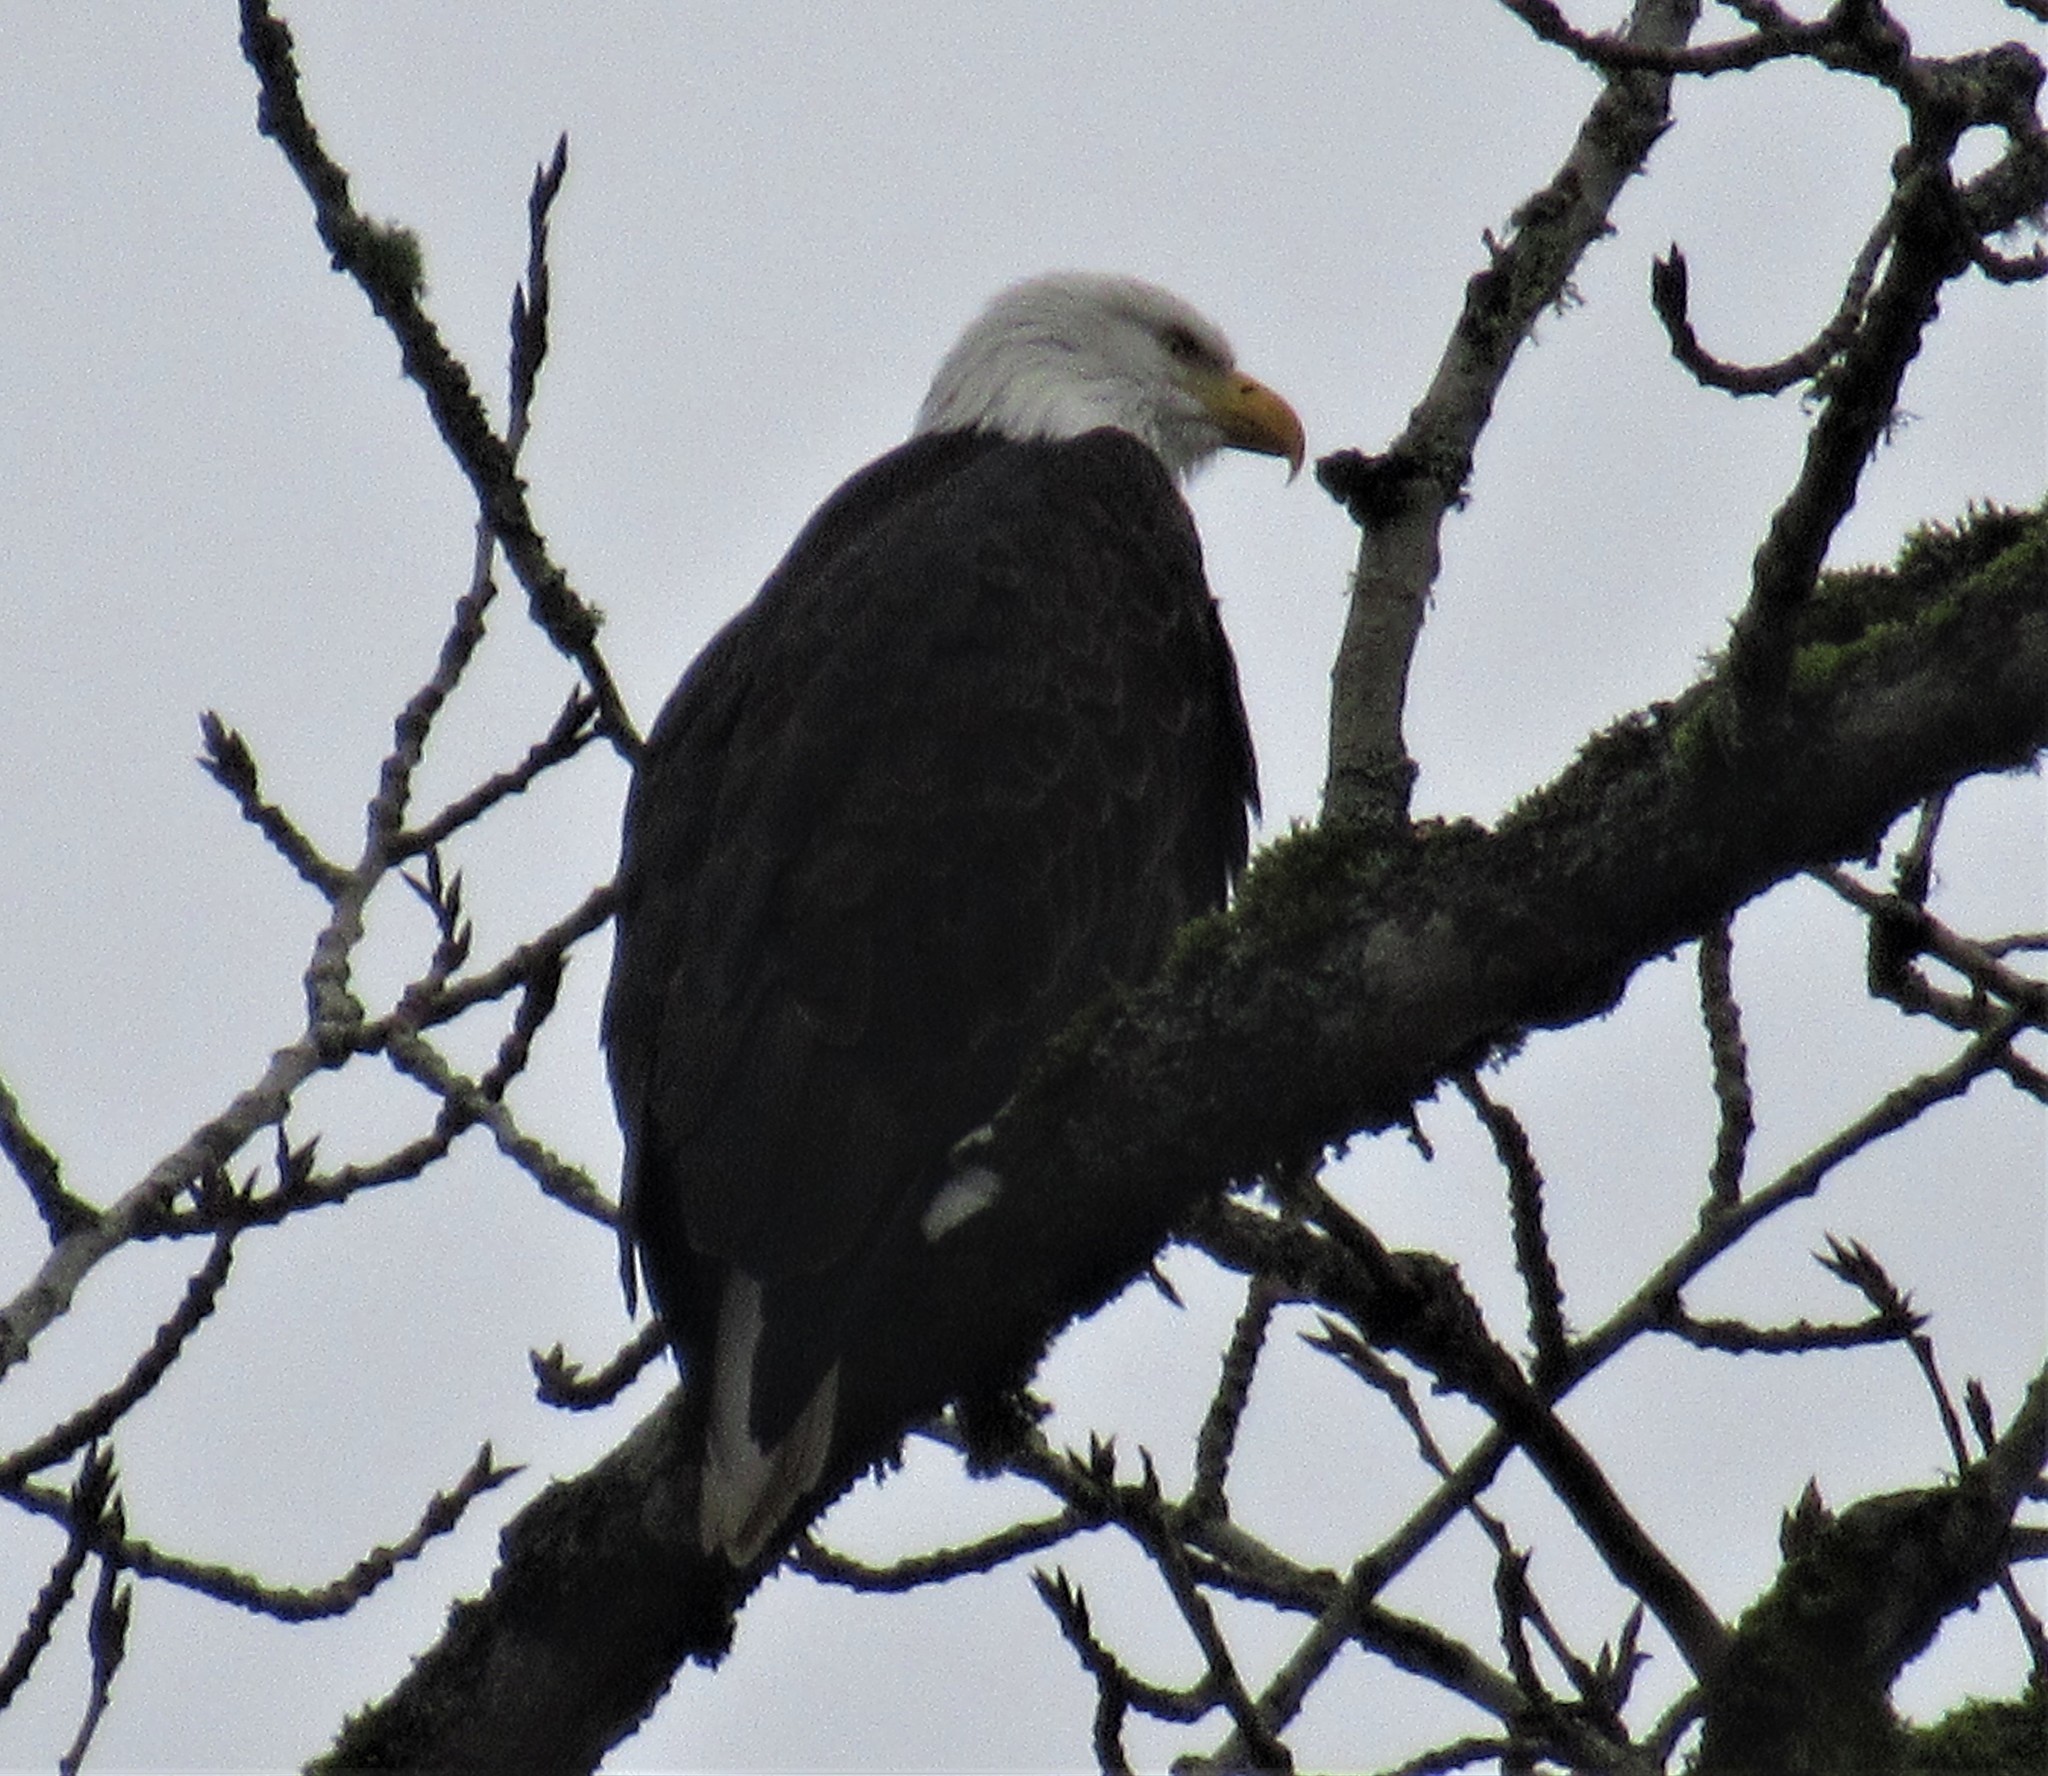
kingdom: Animalia
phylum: Chordata
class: Aves
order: Accipitriformes
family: Accipitridae
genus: Haliaeetus
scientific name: Haliaeetus leucocephalus
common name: Bald eagle
